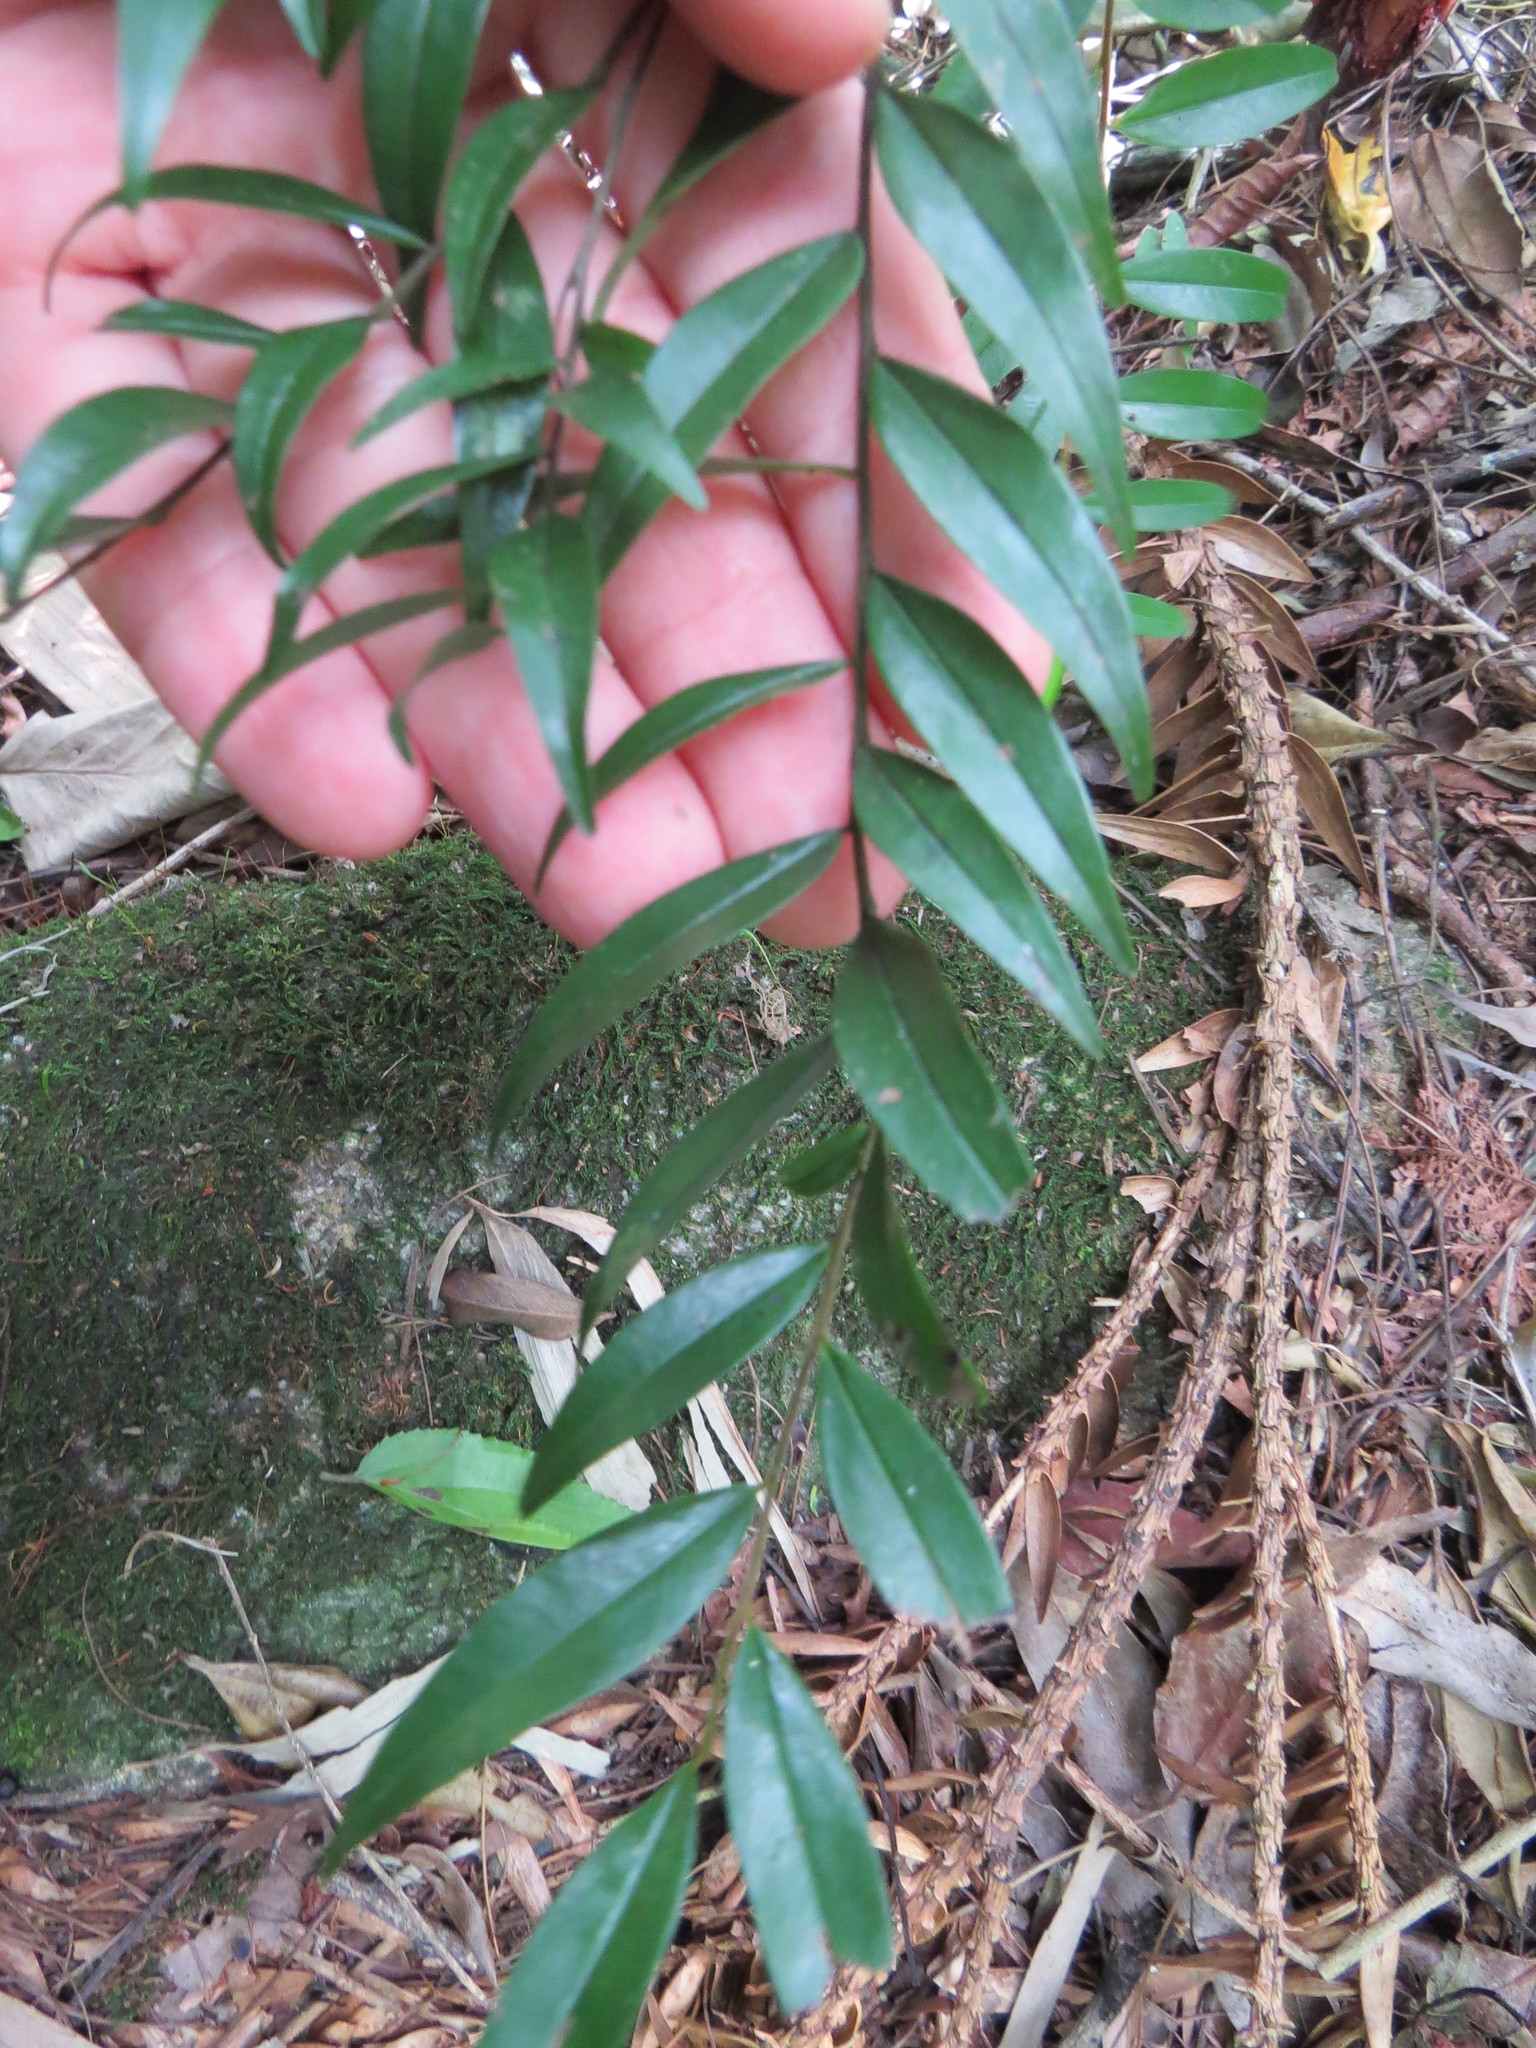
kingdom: Plantae
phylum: Tracheophyta
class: Magnoliopsida
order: Magnoliales
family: Annonaceae
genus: Xylopia
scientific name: Xylopia brasiliensis
